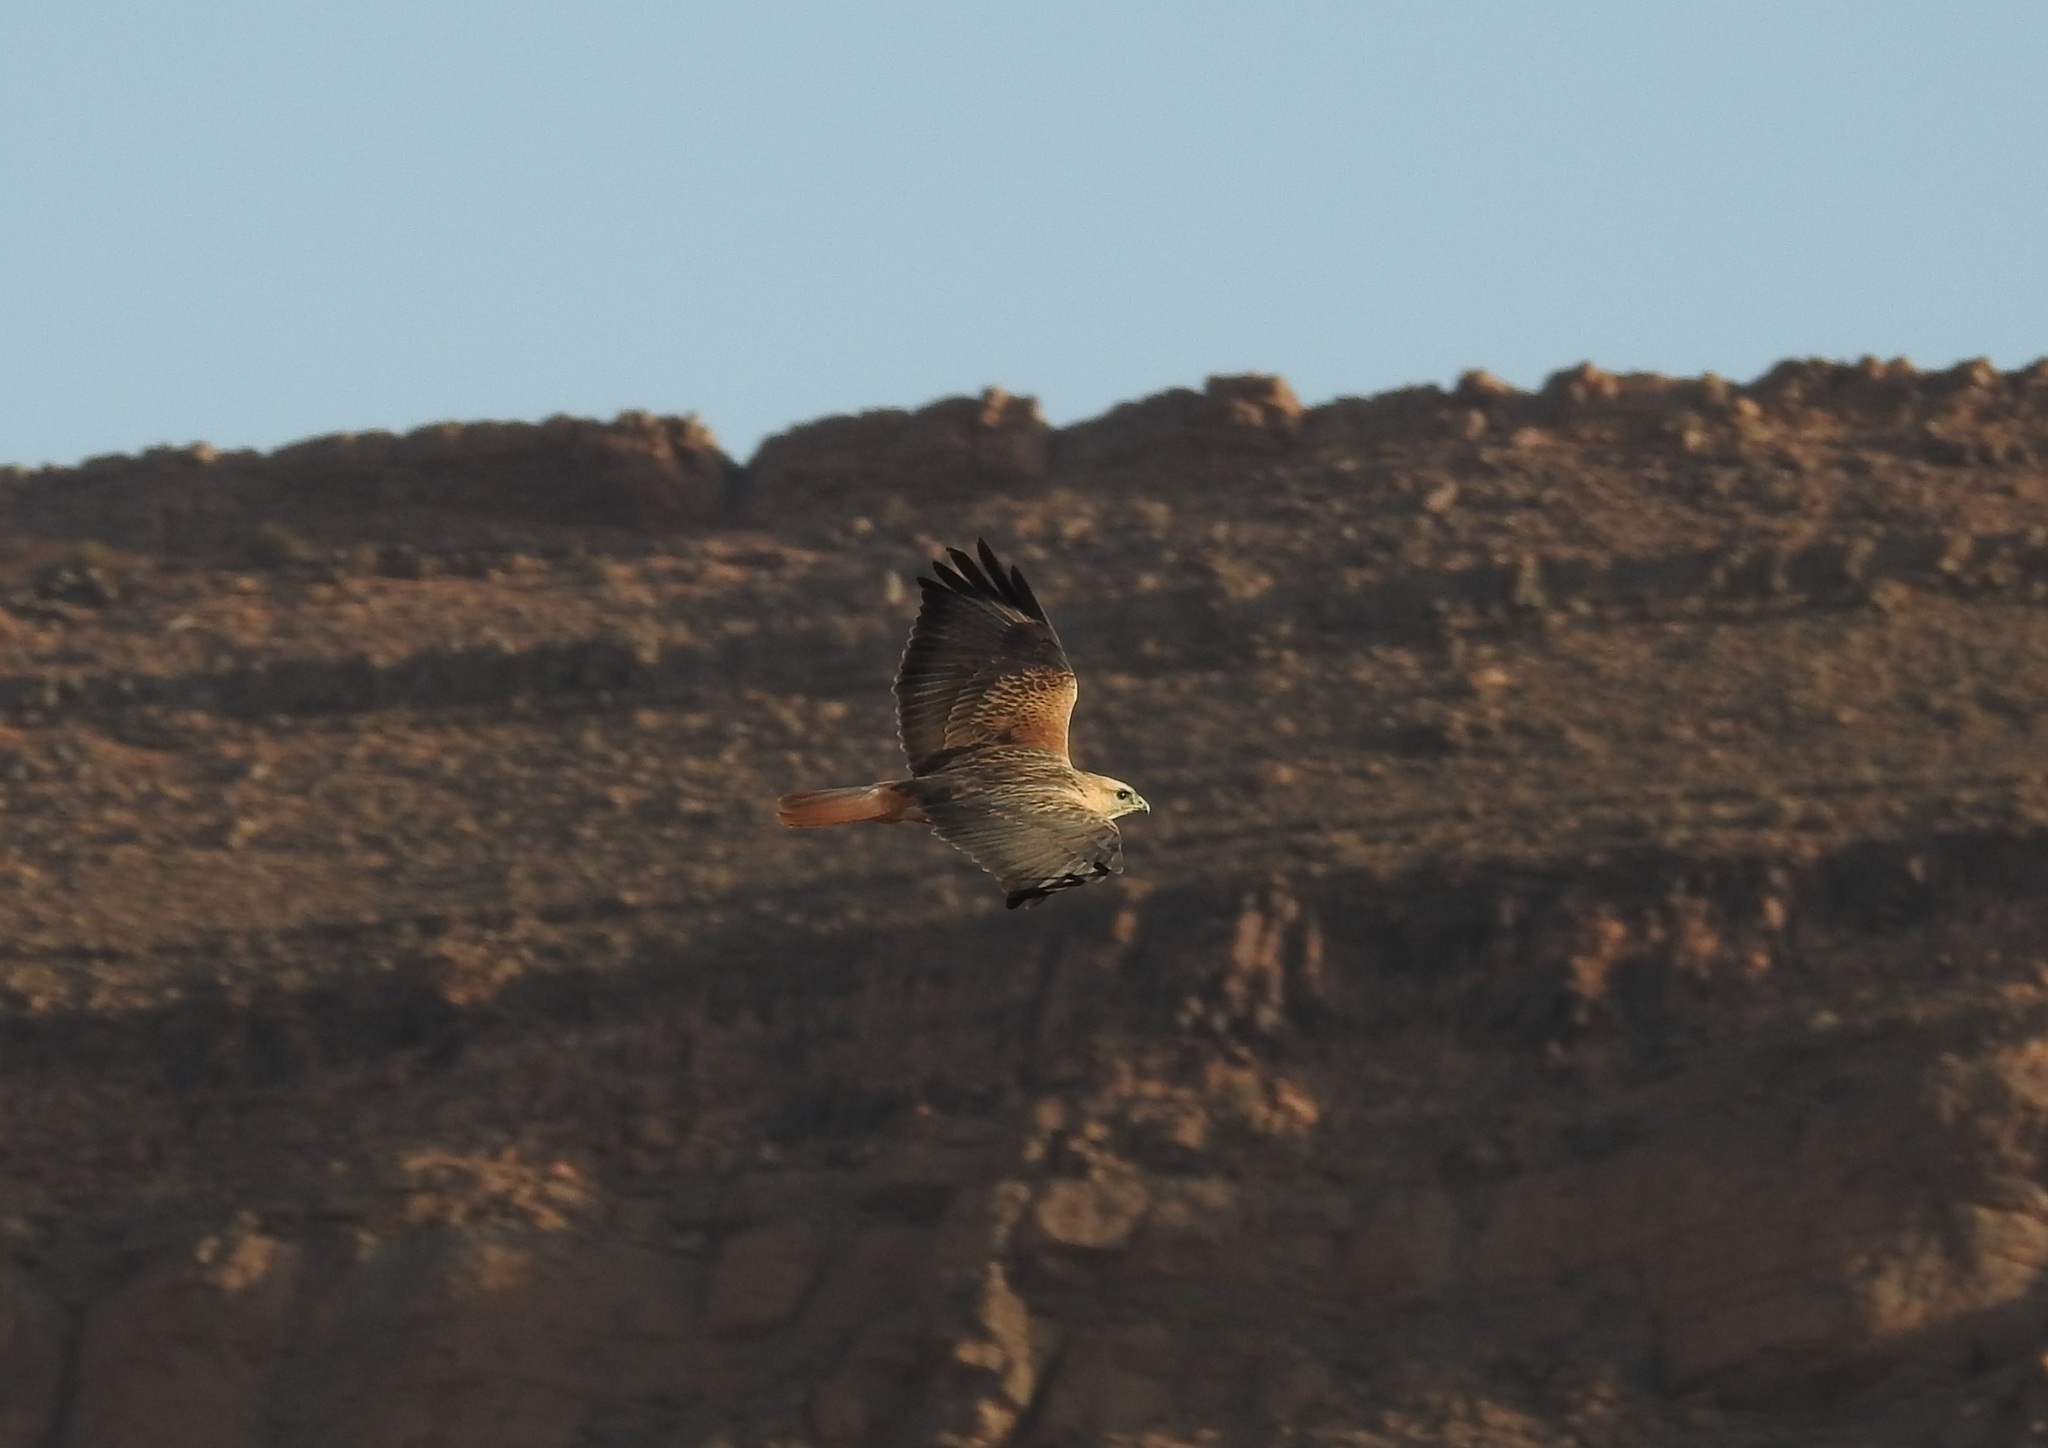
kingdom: Animalia
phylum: Chordata
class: Aves
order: Accipitriformes
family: Accipitridae
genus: Buteo
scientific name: Buteo rufinus
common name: Long-legged buzzard
